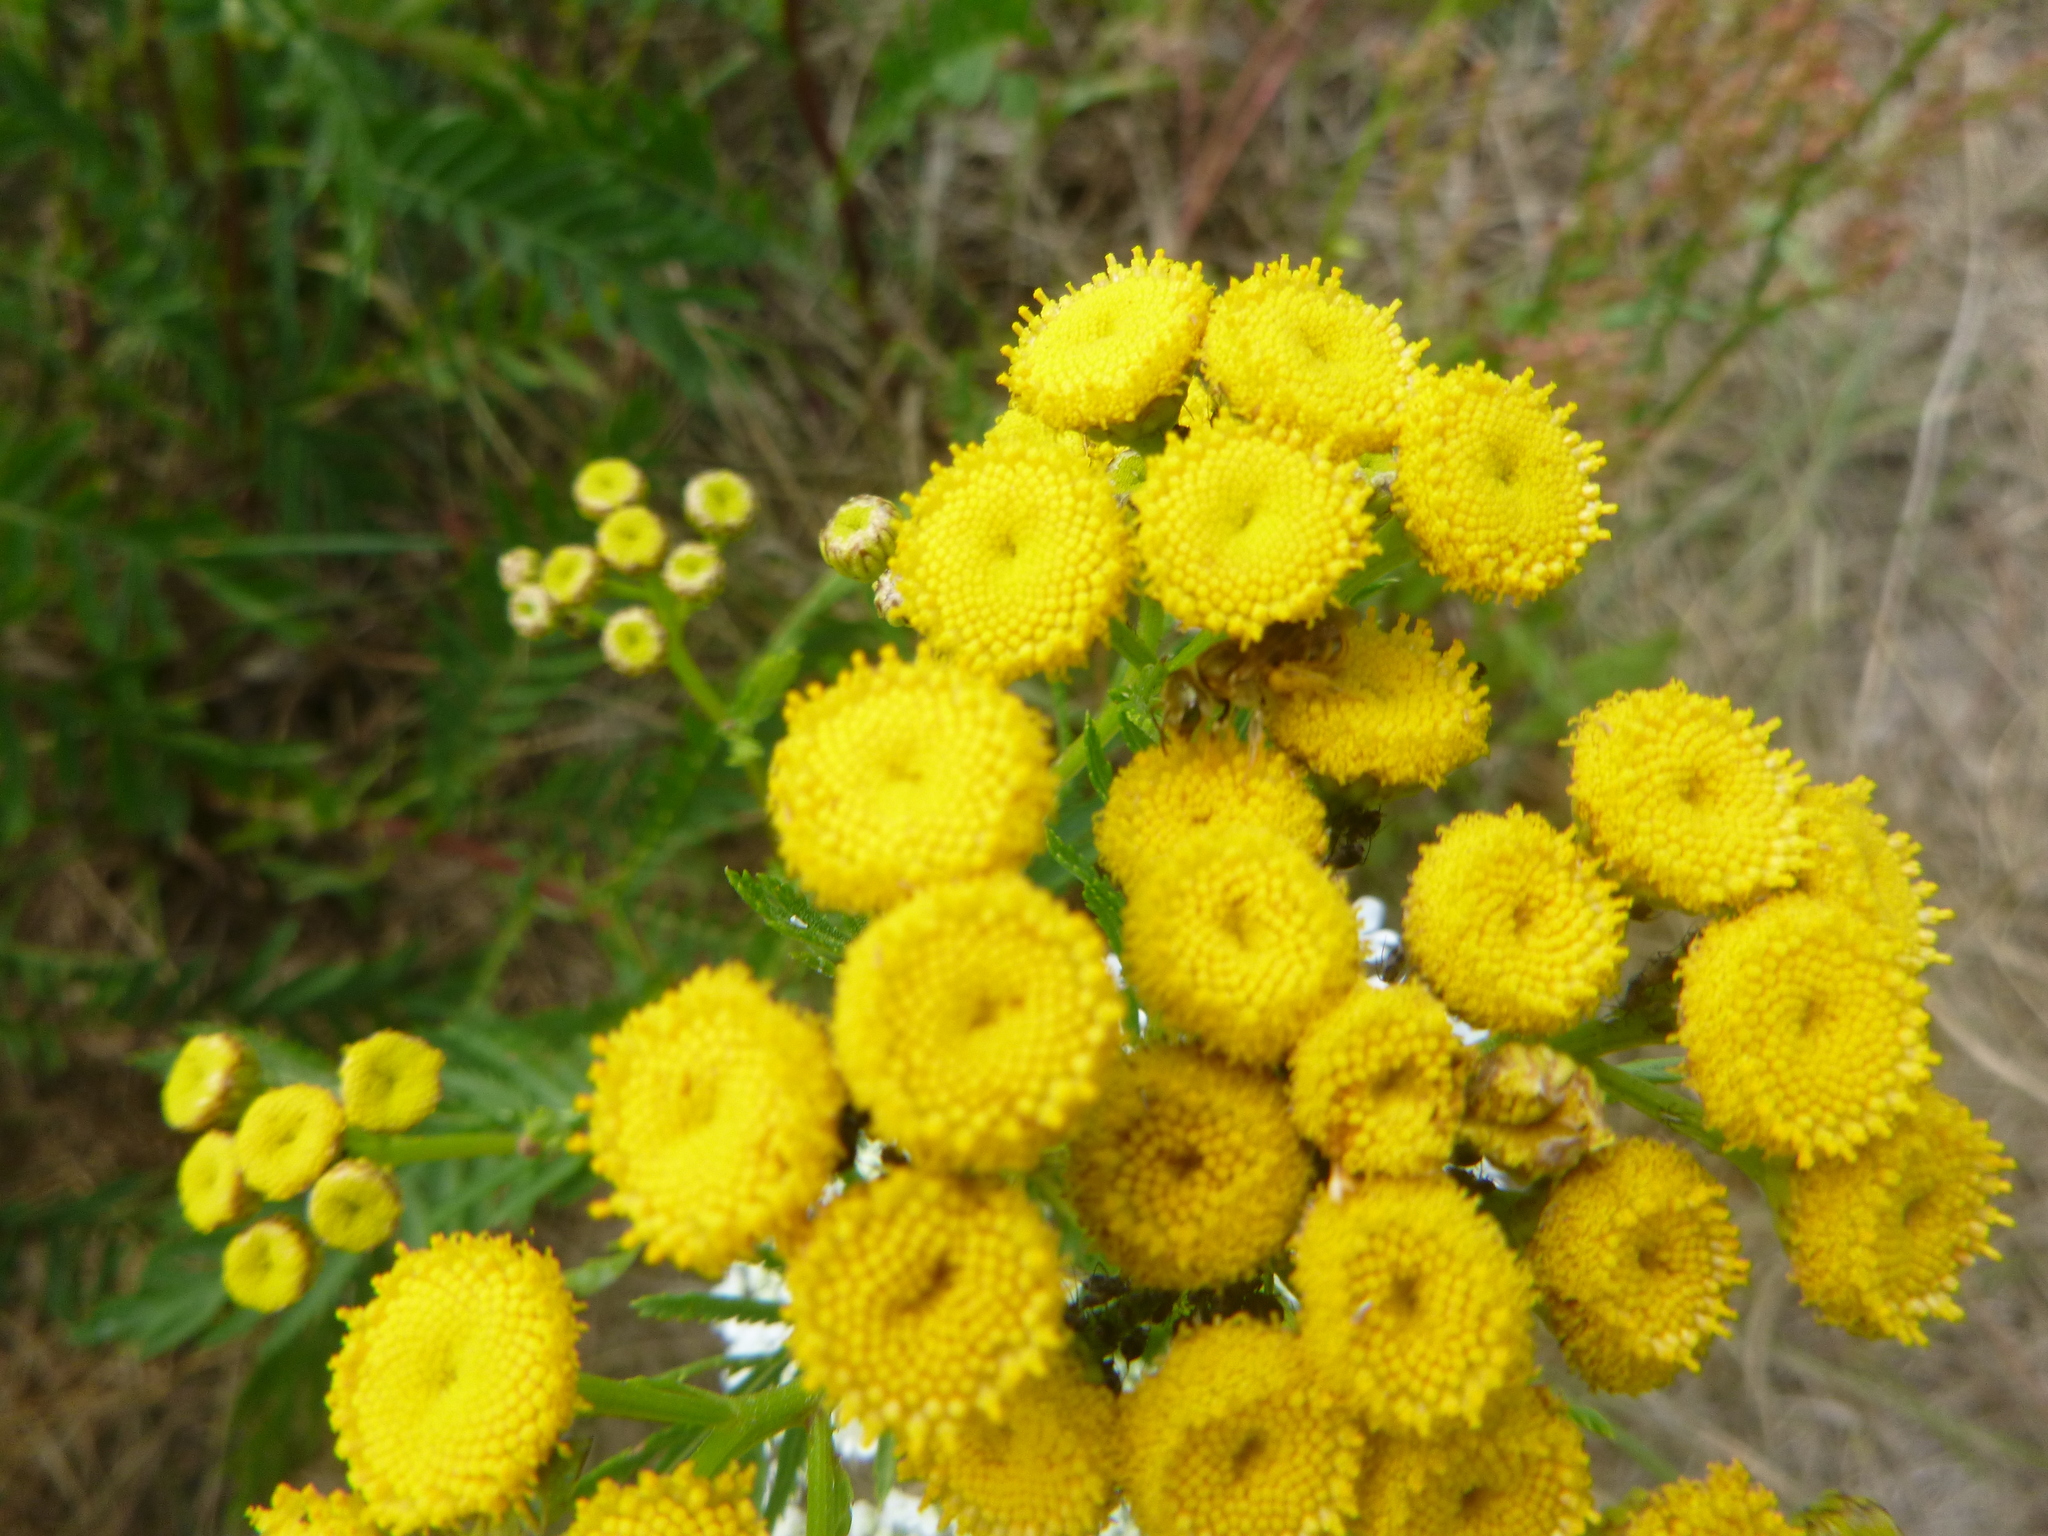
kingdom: Plantae
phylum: Tracheophyta
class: Magnoliopsida
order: Asterales
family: Asteraceae
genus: Tanacetum
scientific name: Tanacetum vulgare
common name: Common tansy
